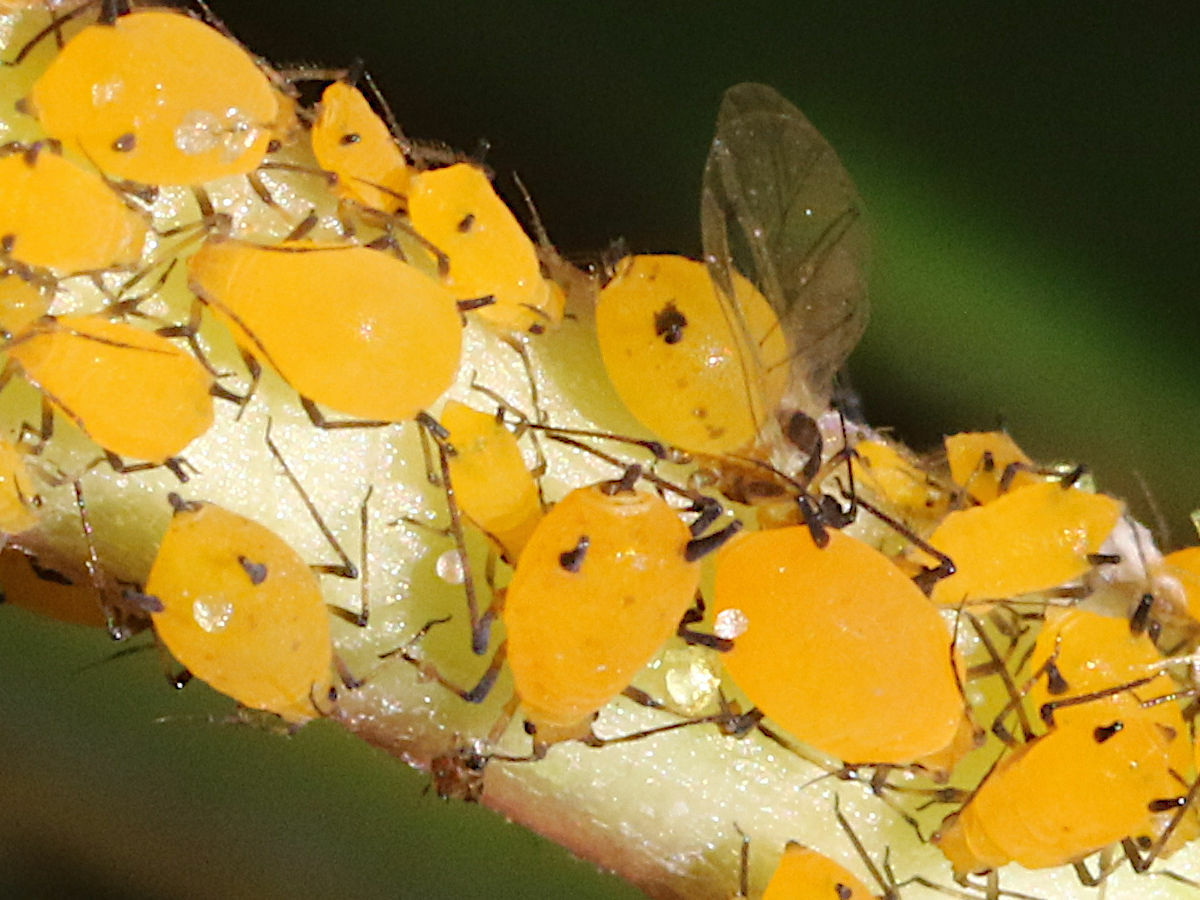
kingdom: Animalia
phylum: Arthropoda
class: Insecta
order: Hemiptera
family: Aphididae
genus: Aphis
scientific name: Aphis nerii
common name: Oleander aphid
